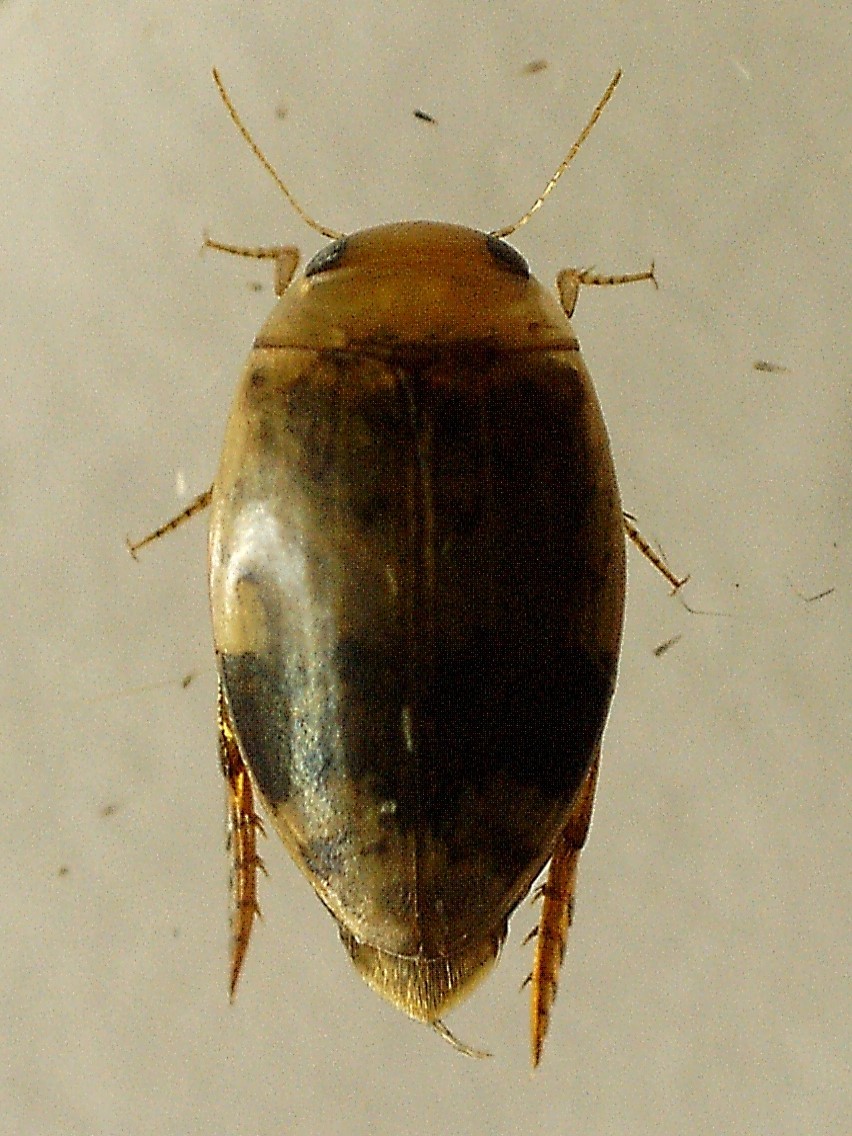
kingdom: Animalia
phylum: Arthropoda
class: Insecta
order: Coleoptera
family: Dytiscidae
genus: Laccophilus
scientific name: Laccophilus fasciatus
